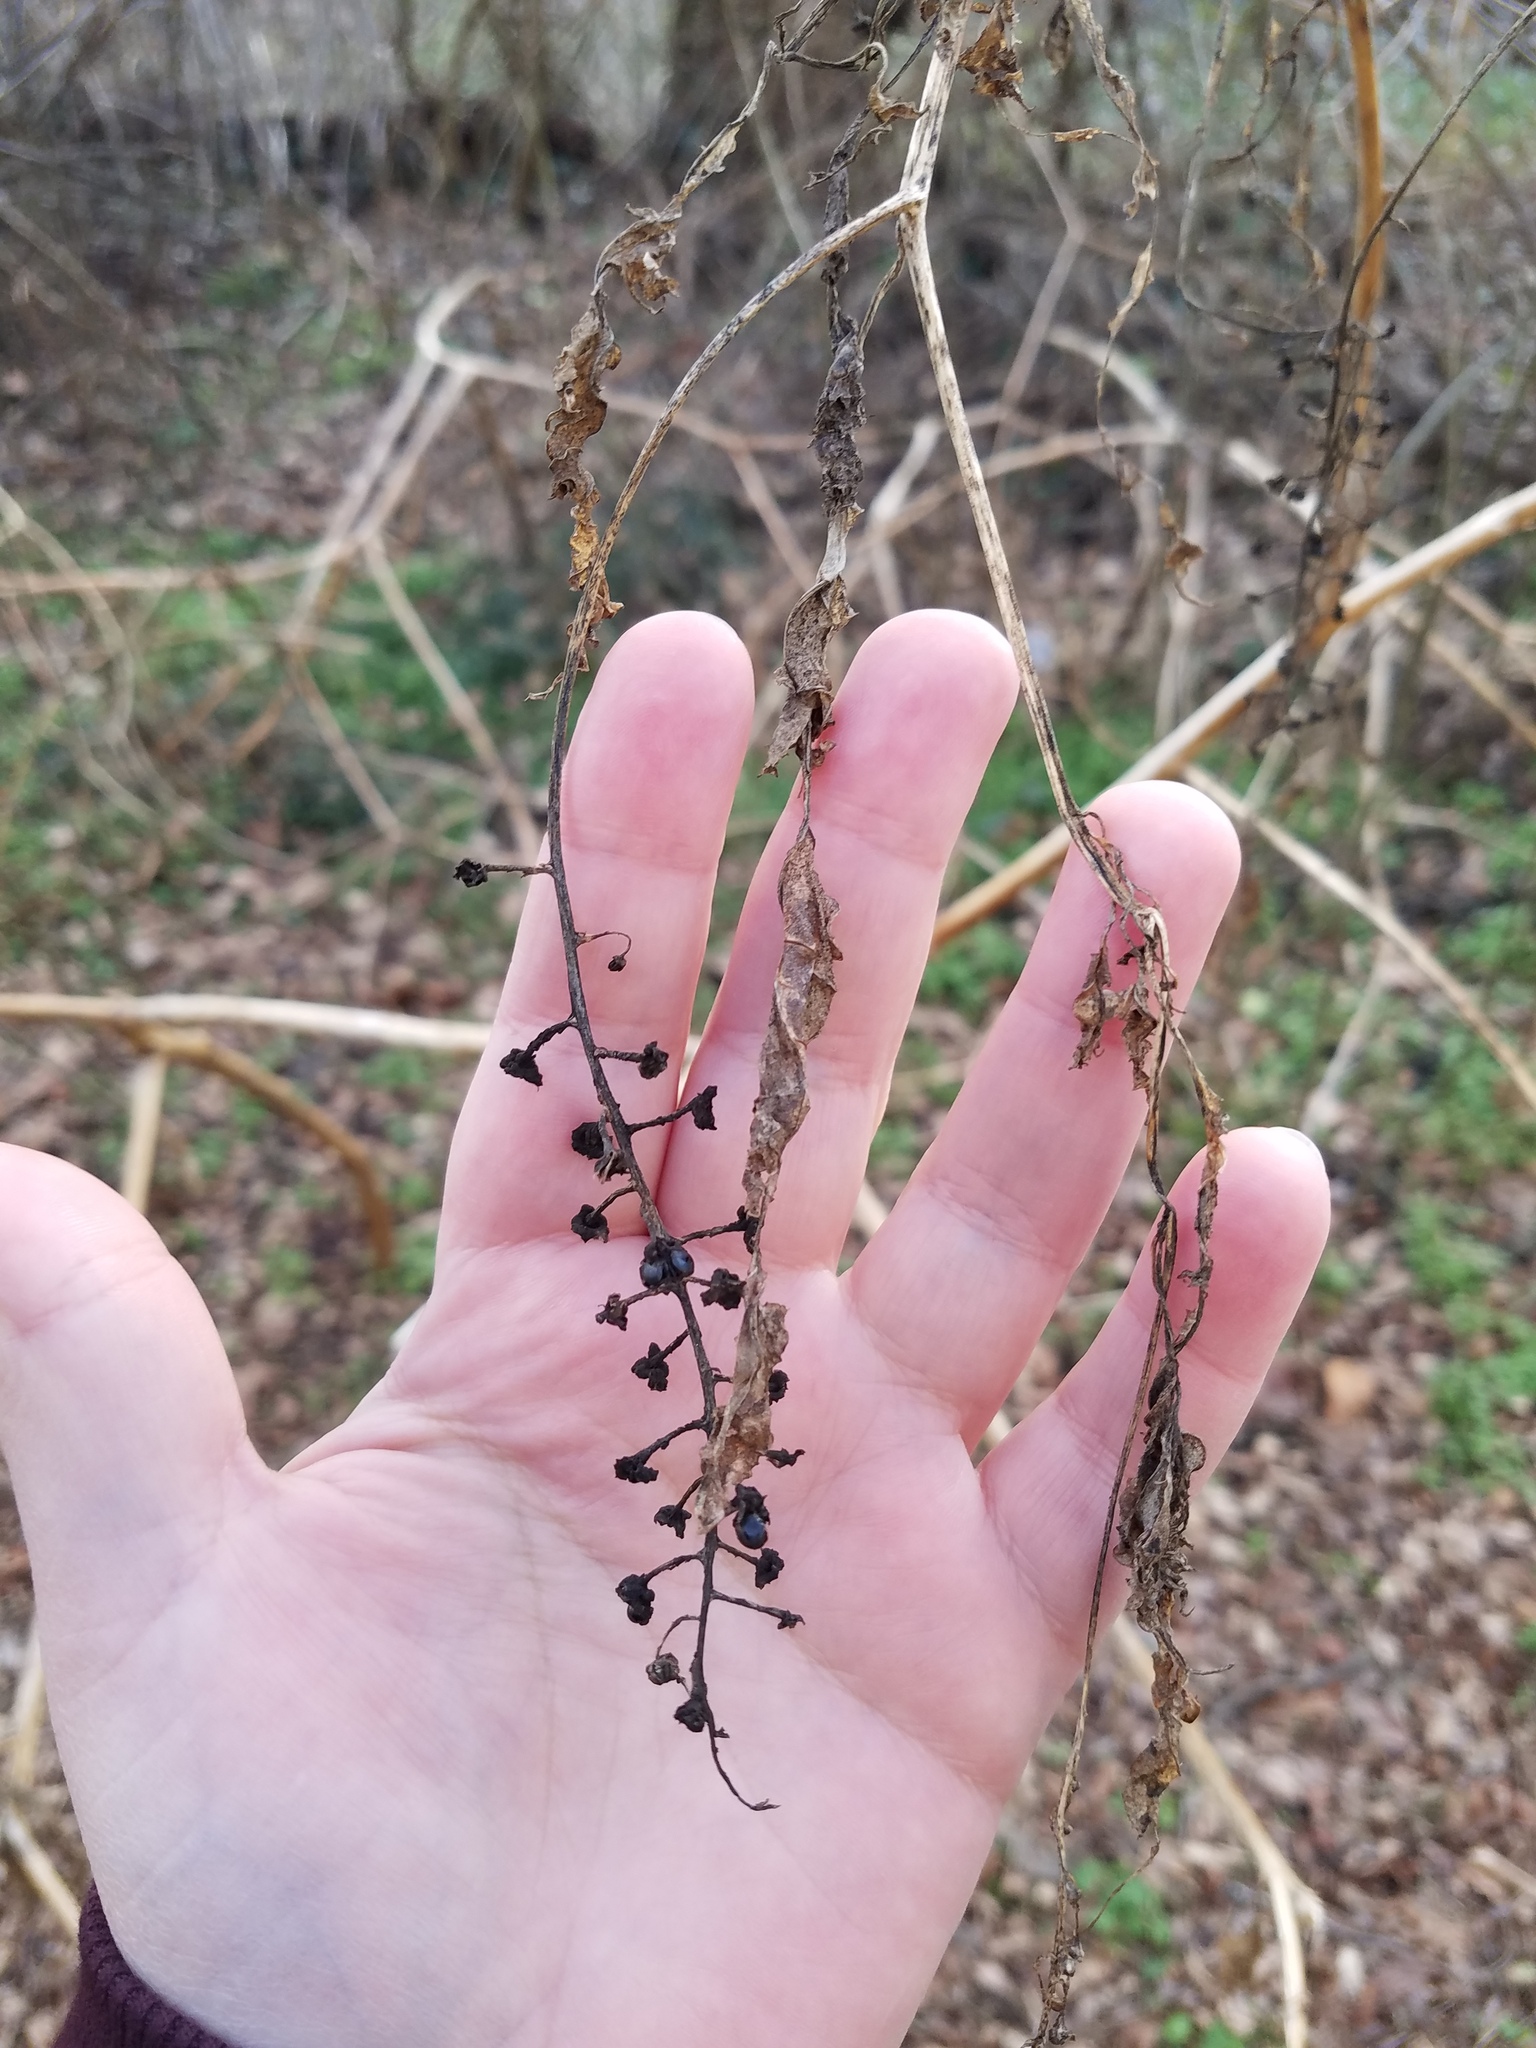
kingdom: Plantae
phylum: Tracheophyta
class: Magnoliopsida
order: Caryophyllales
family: Phytolaccaceae
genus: Phytolacca
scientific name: Phytolacca americana
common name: American pokeweed
